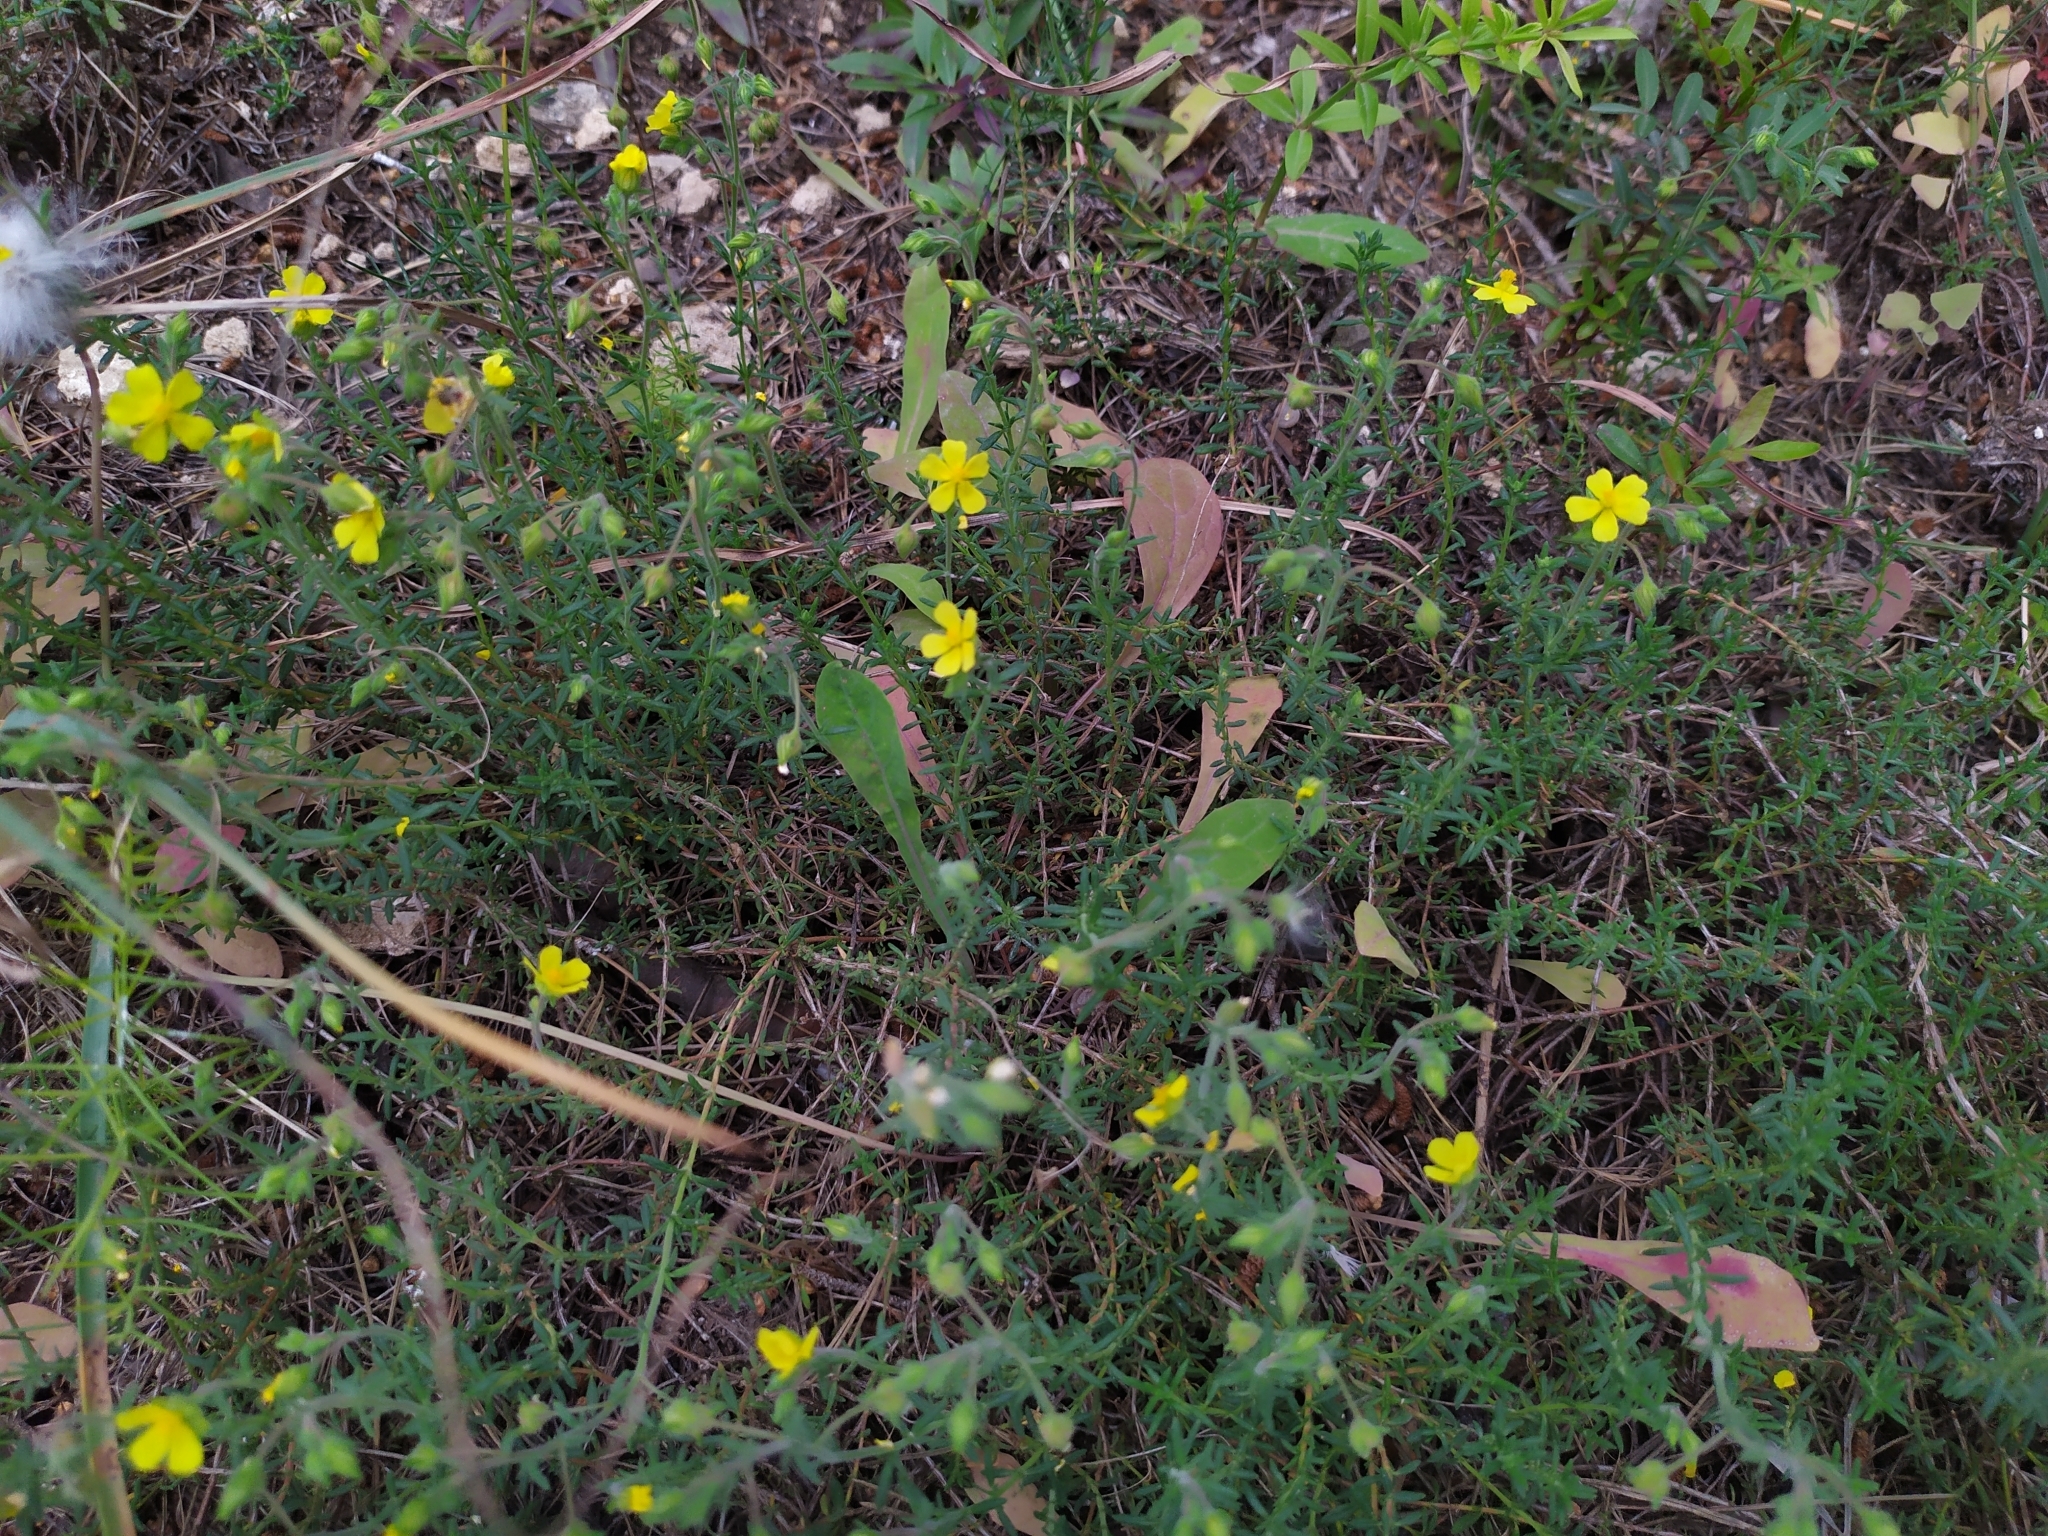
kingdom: Plantae
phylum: Tracheophyta
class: Magnoliopsida
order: Malvales
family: Cistaceae
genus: Fumana
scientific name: Fumana thymifolia
